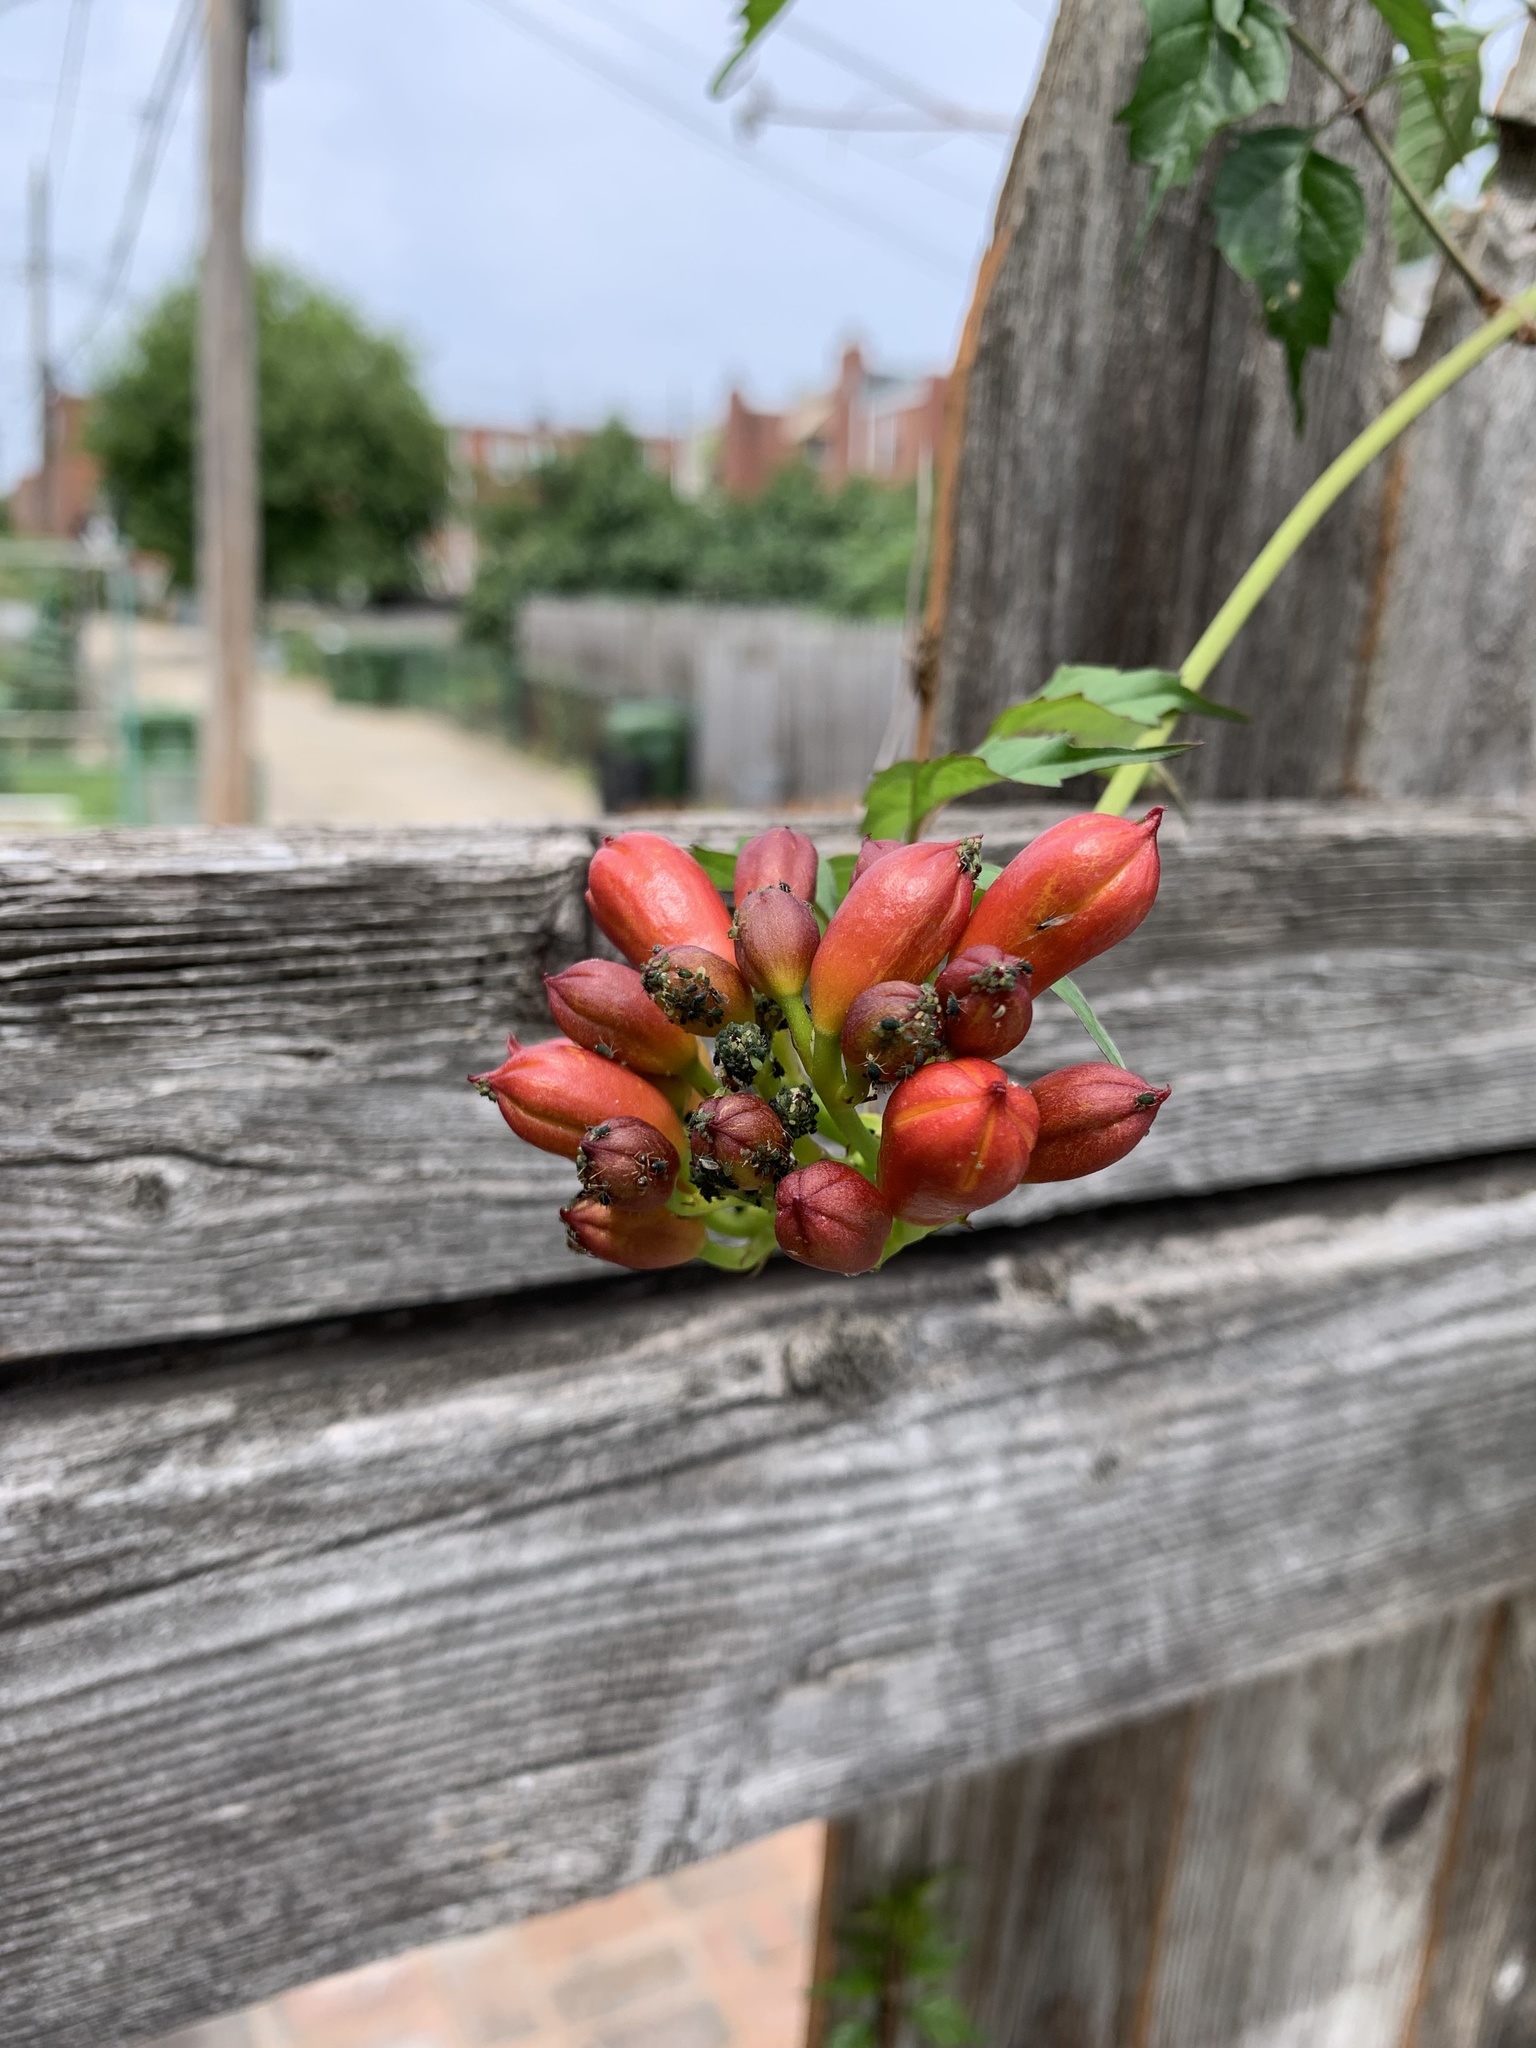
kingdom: Plantae
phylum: Tracheophyta
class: Magnoliopsida
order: Lamiales
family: Bignoniaceae
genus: Campsis
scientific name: Campsis radicans
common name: Trumpet-creeper
